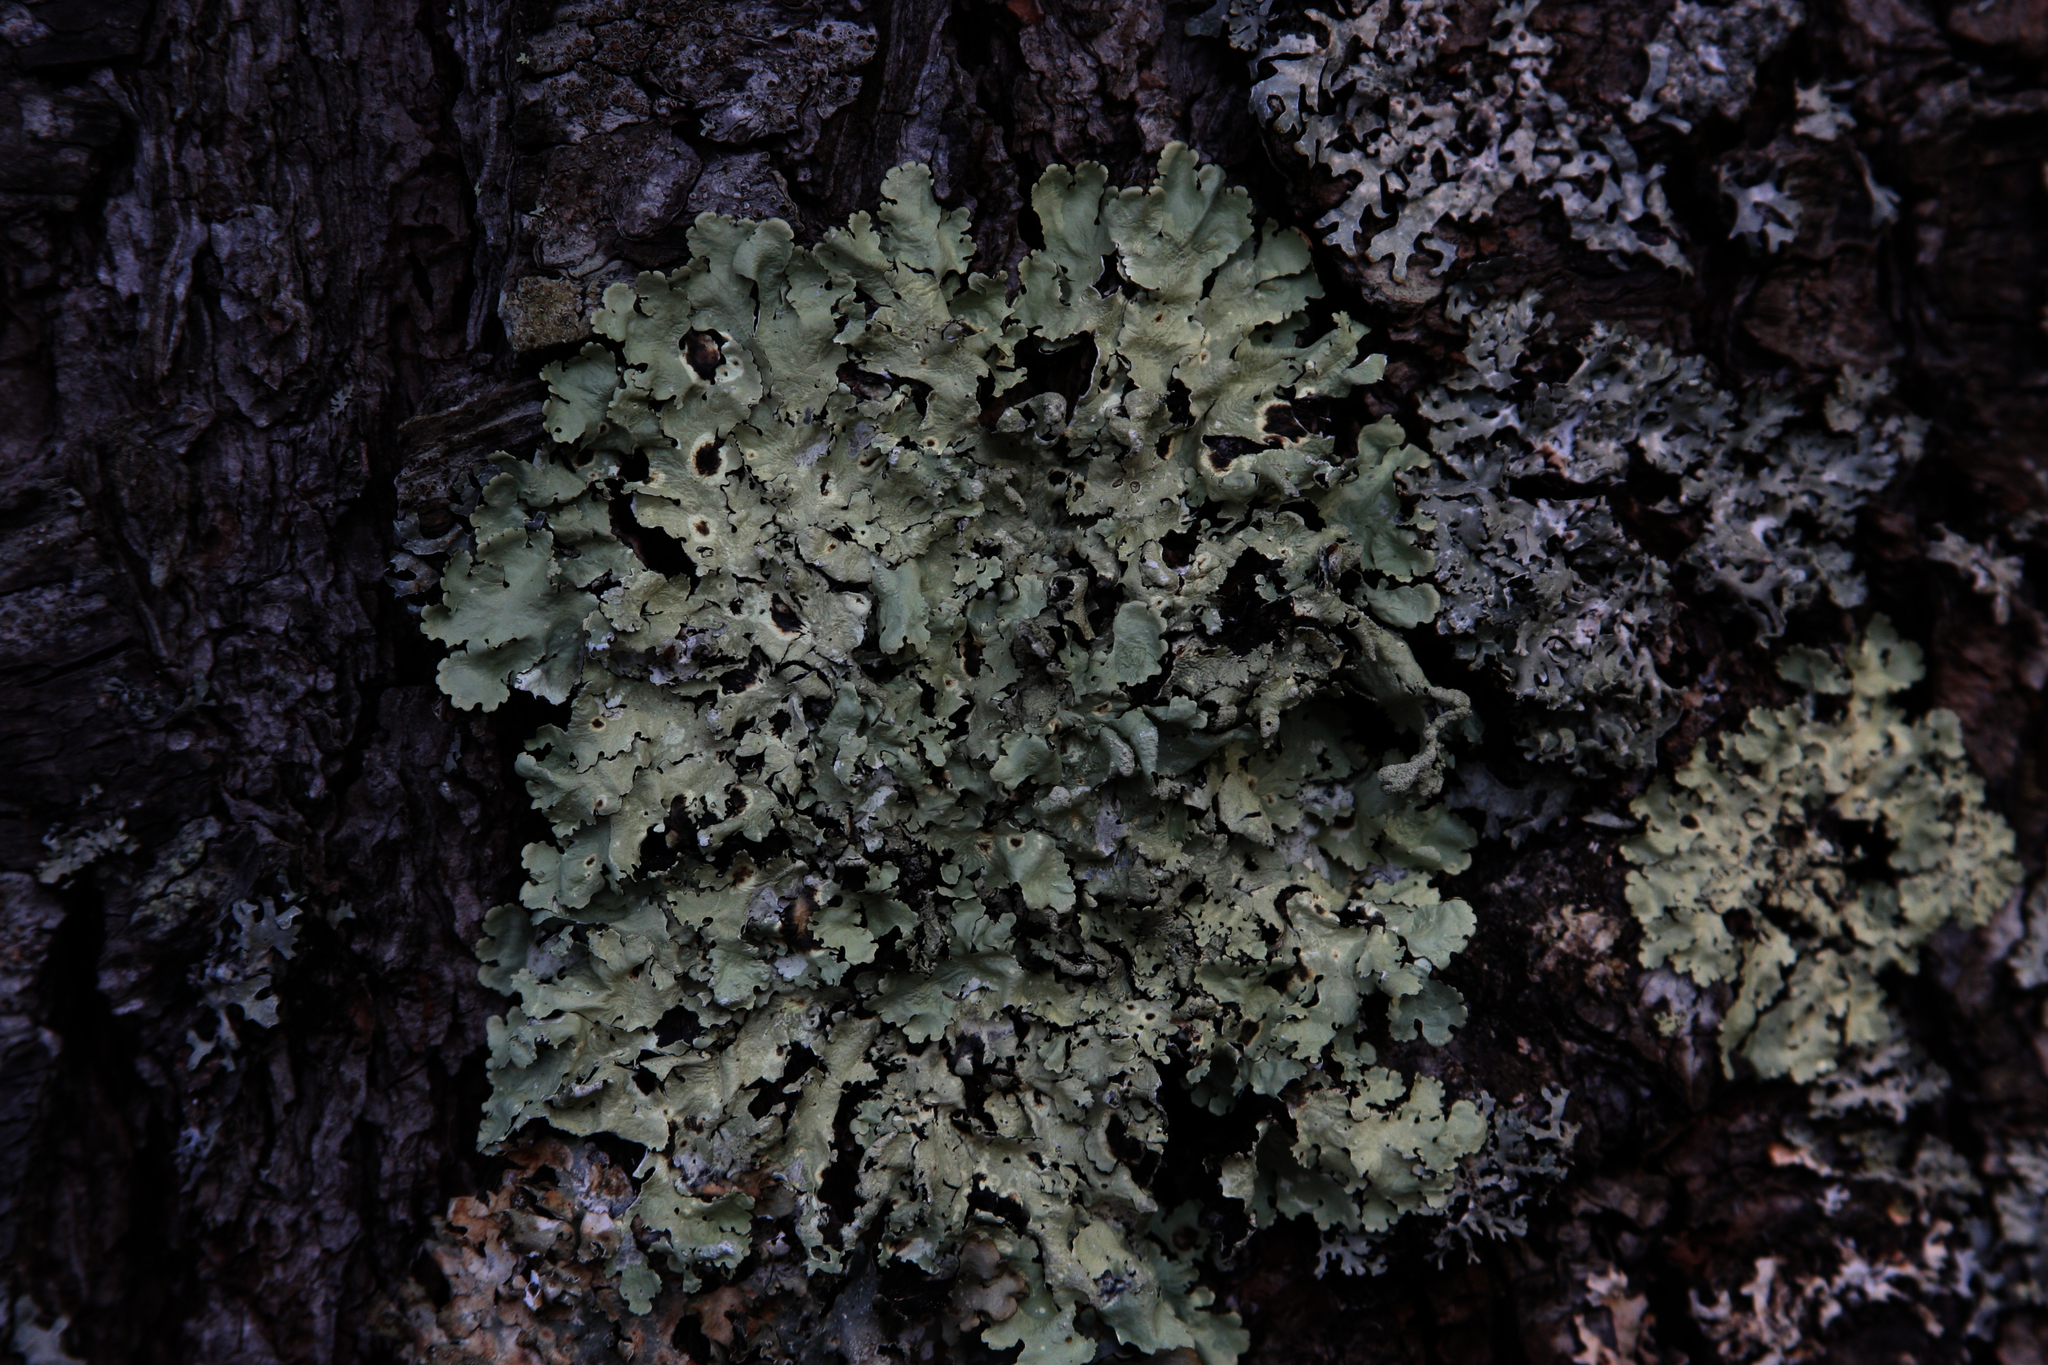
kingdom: Fungi
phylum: Ascomycota
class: Lecanoromycetes
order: Lecanorales
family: Parmeliaceae
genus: Flavoparmelia
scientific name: Flavoparmelia caperata
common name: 40-mile per hour lichen
